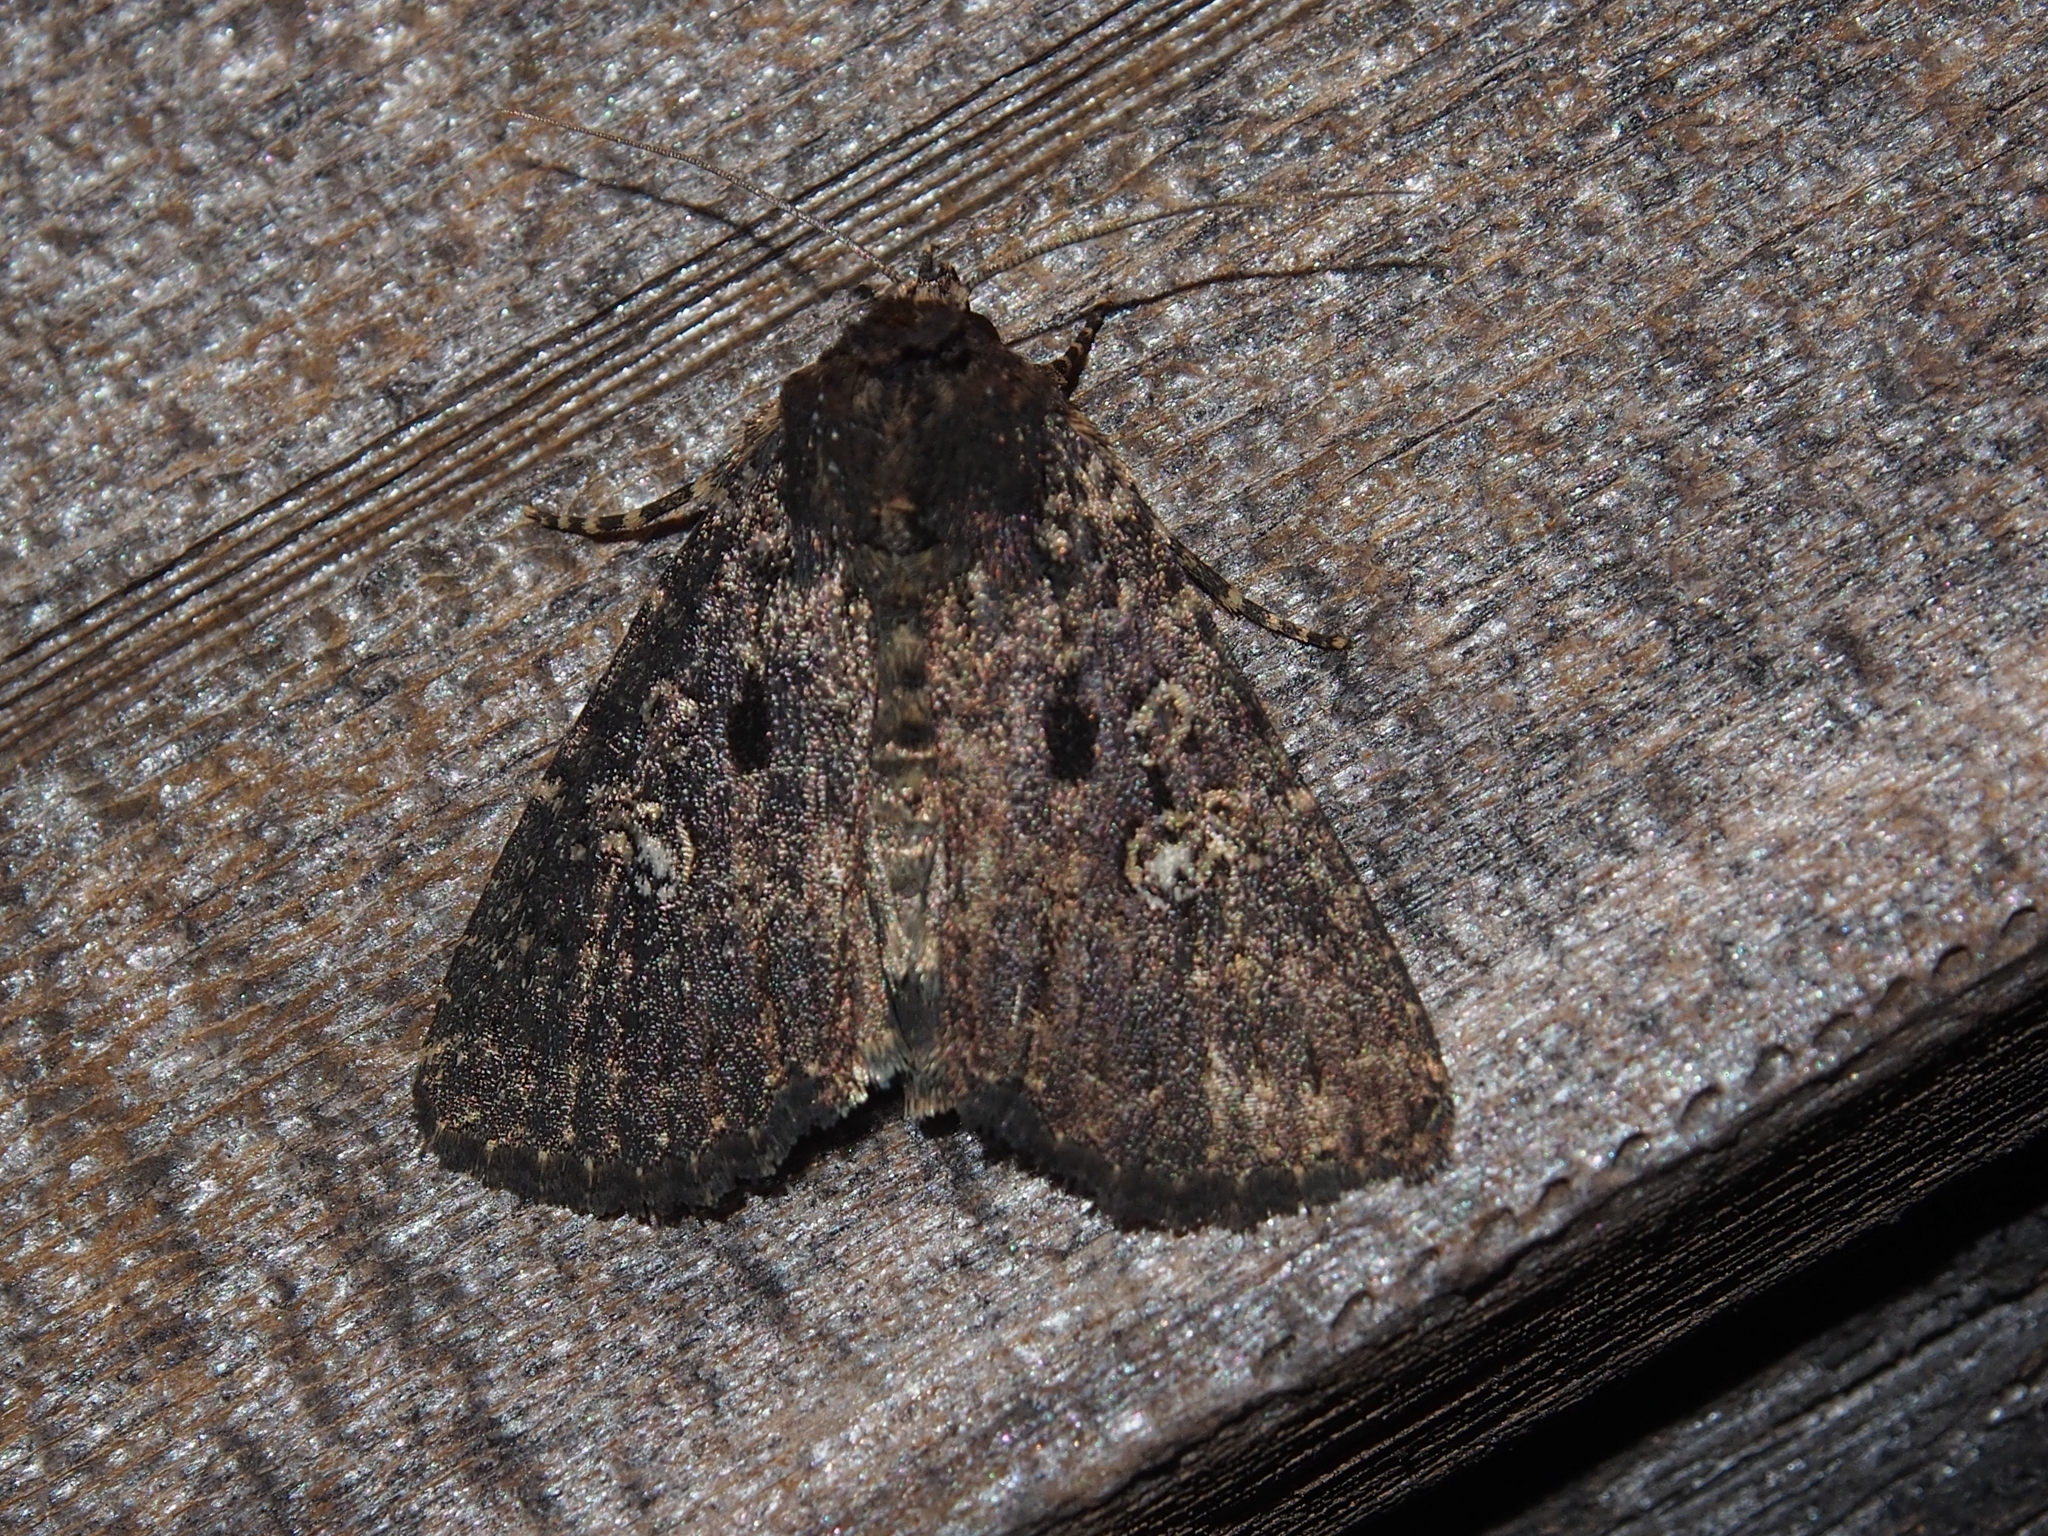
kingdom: Animalia
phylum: Arthropoda
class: Insecta
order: Lepidoptera
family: Noctuidae
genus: Condica
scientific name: Condica vecors
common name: Dusky groundling
